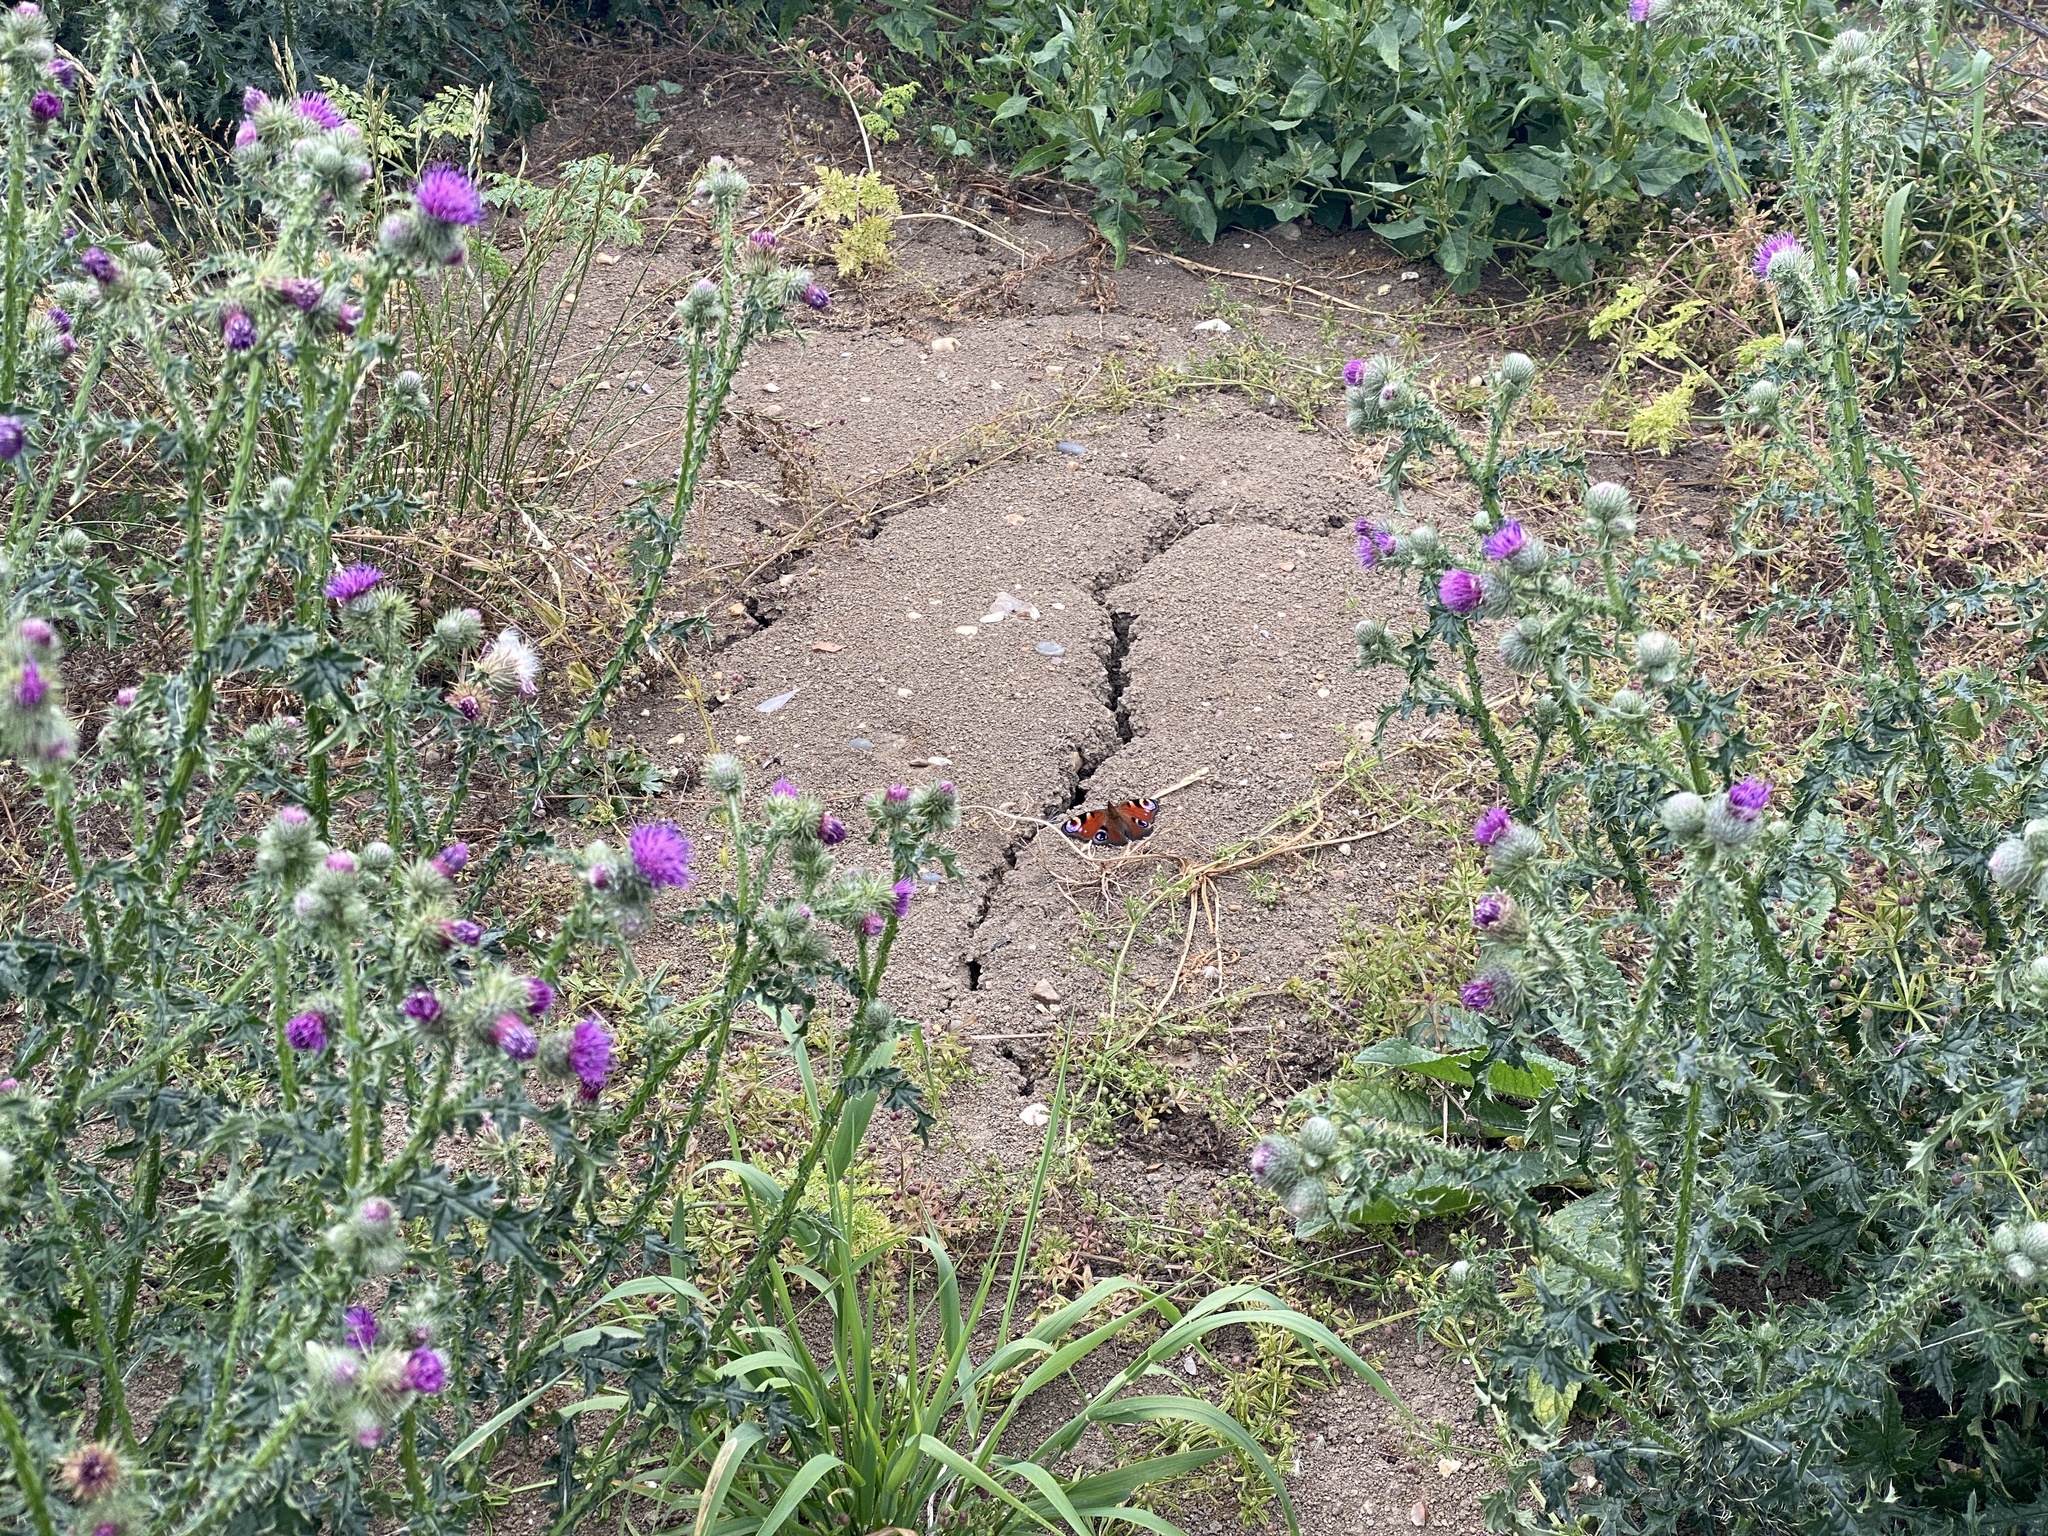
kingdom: Animalia
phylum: Arthropoda
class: Insecta
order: Lepidoptera
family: Nymphalidae
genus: Aglais
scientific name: Aglais io
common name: Peacock
